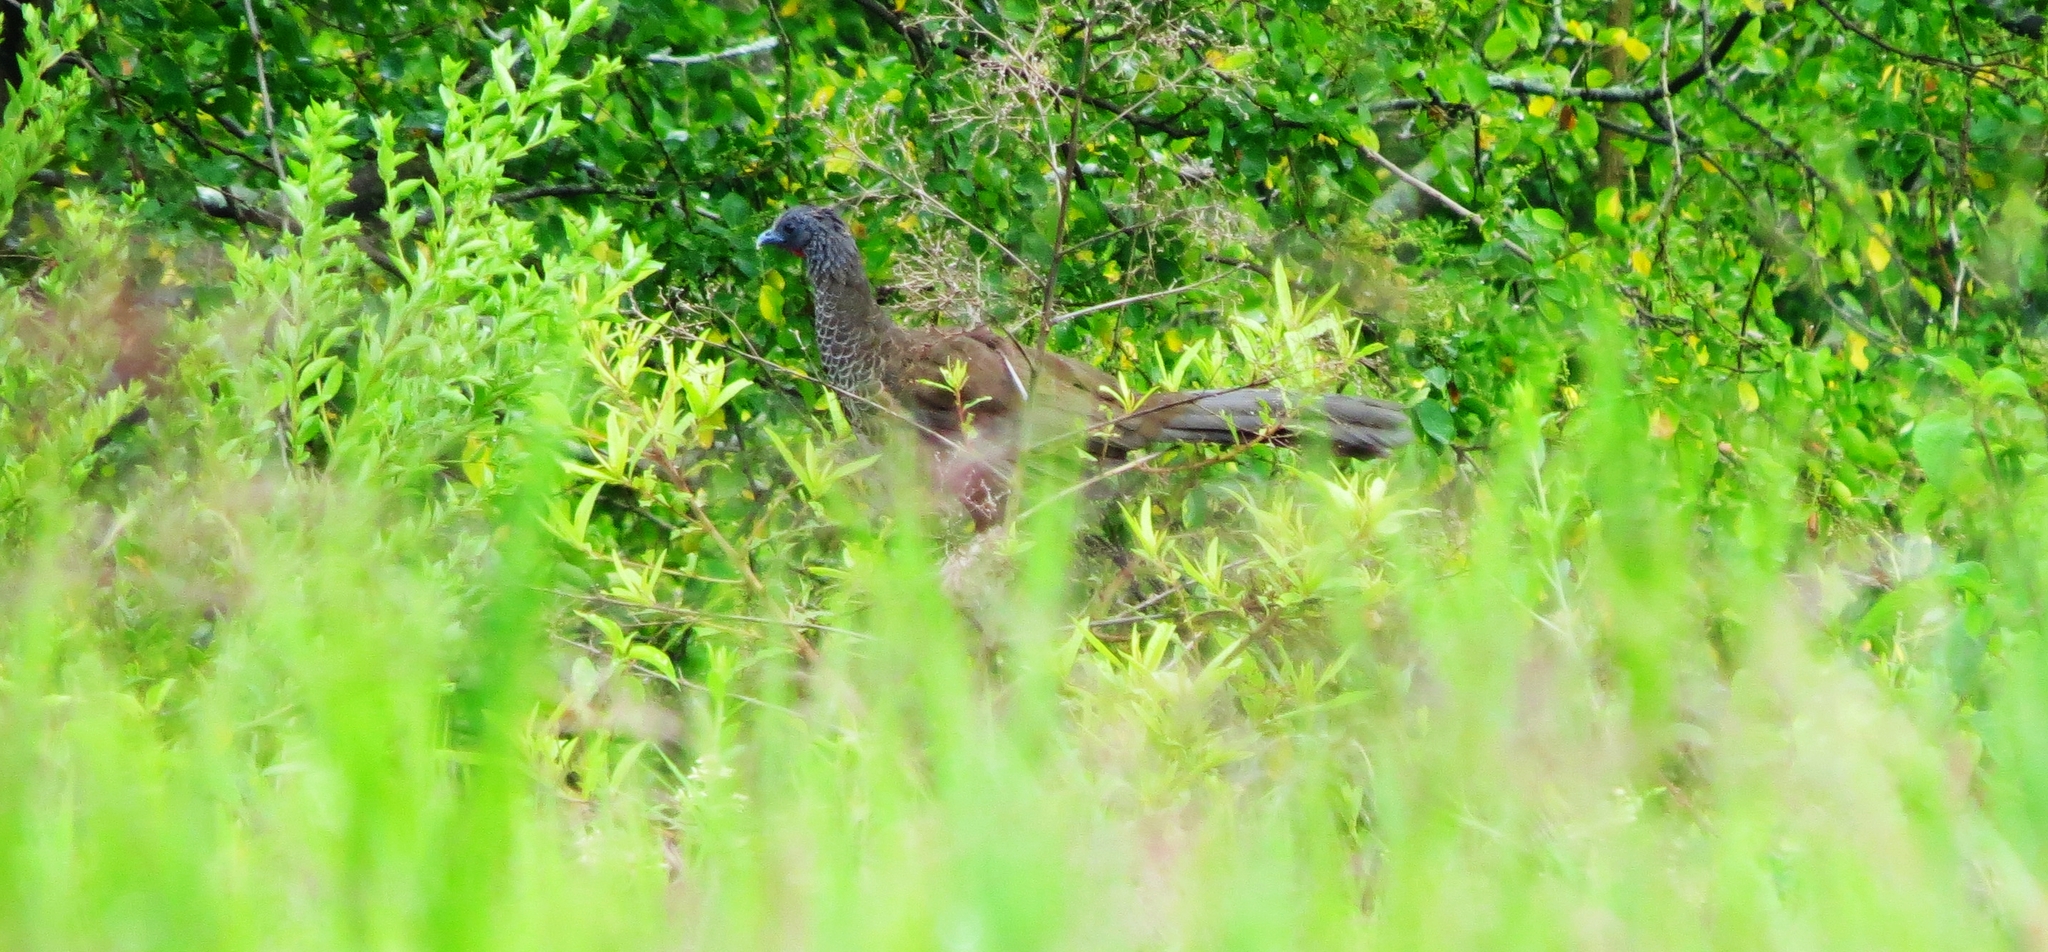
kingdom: Animalia
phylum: Chordata
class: Aves
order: Galliformes
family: Cracidae
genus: Ortalis
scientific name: Ortalis columbiana
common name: Colombian chachalaca
